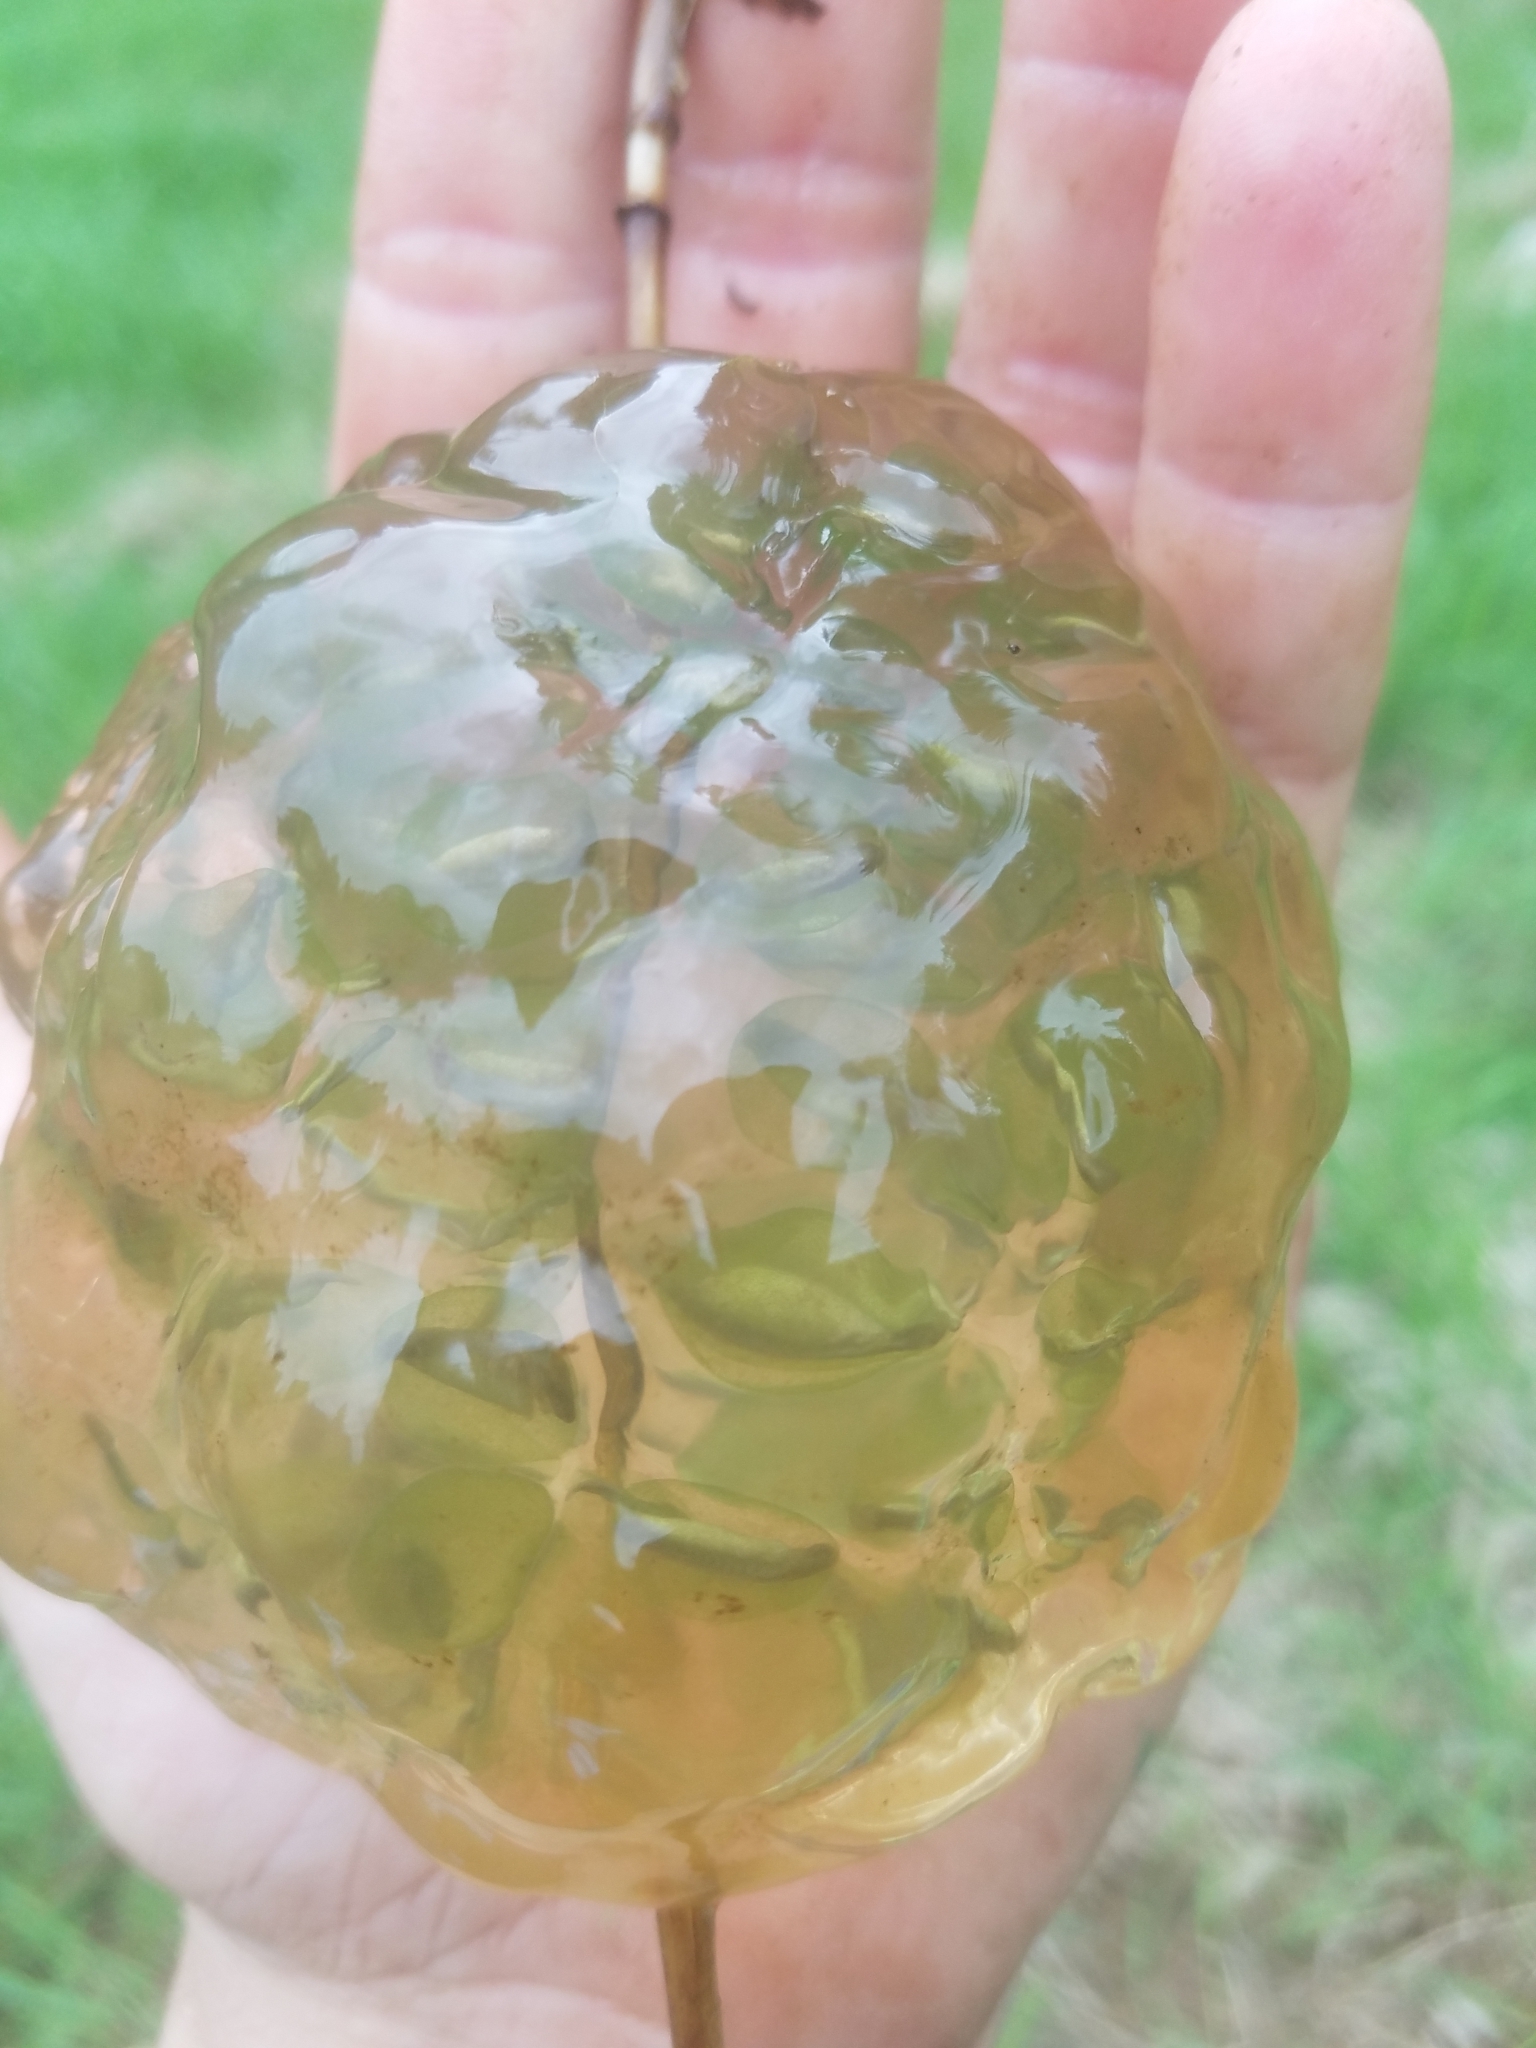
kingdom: Animalia
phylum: Chordata
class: Amphibia
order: Caudata
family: Ambystomatidae
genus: Ambystoma
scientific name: Ambystoma gracile
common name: Northwestern salamander
